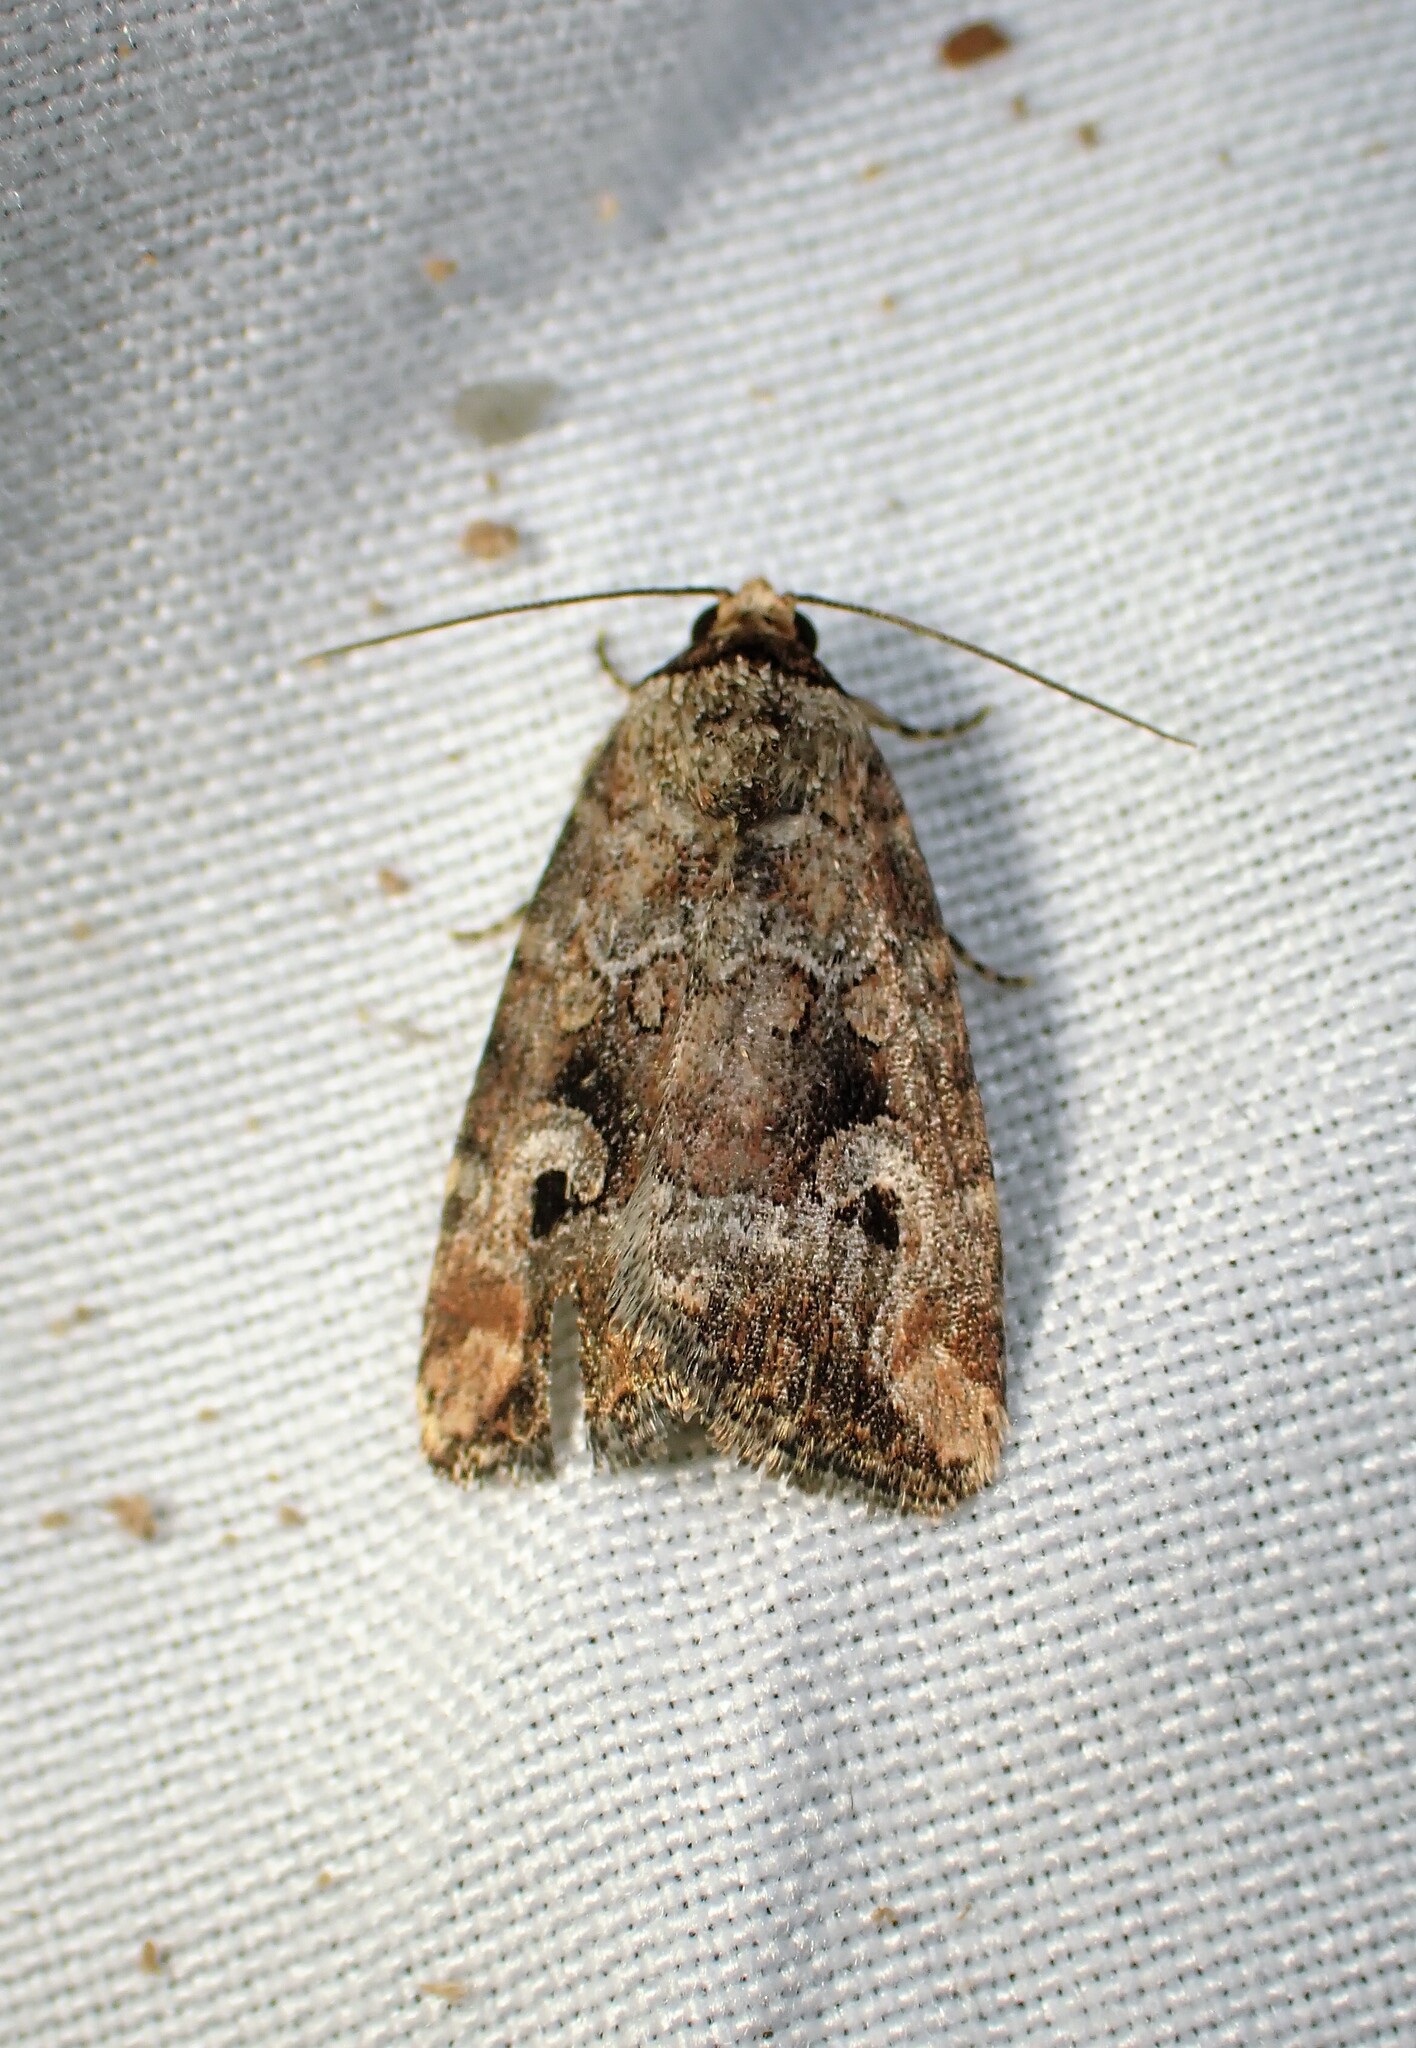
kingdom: Animalia
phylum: Arthropoda
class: Insecta
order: Lepidoptera
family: Noctuidae
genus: Elaphria
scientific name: Elaphria alapallida
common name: Pale-winged midget
